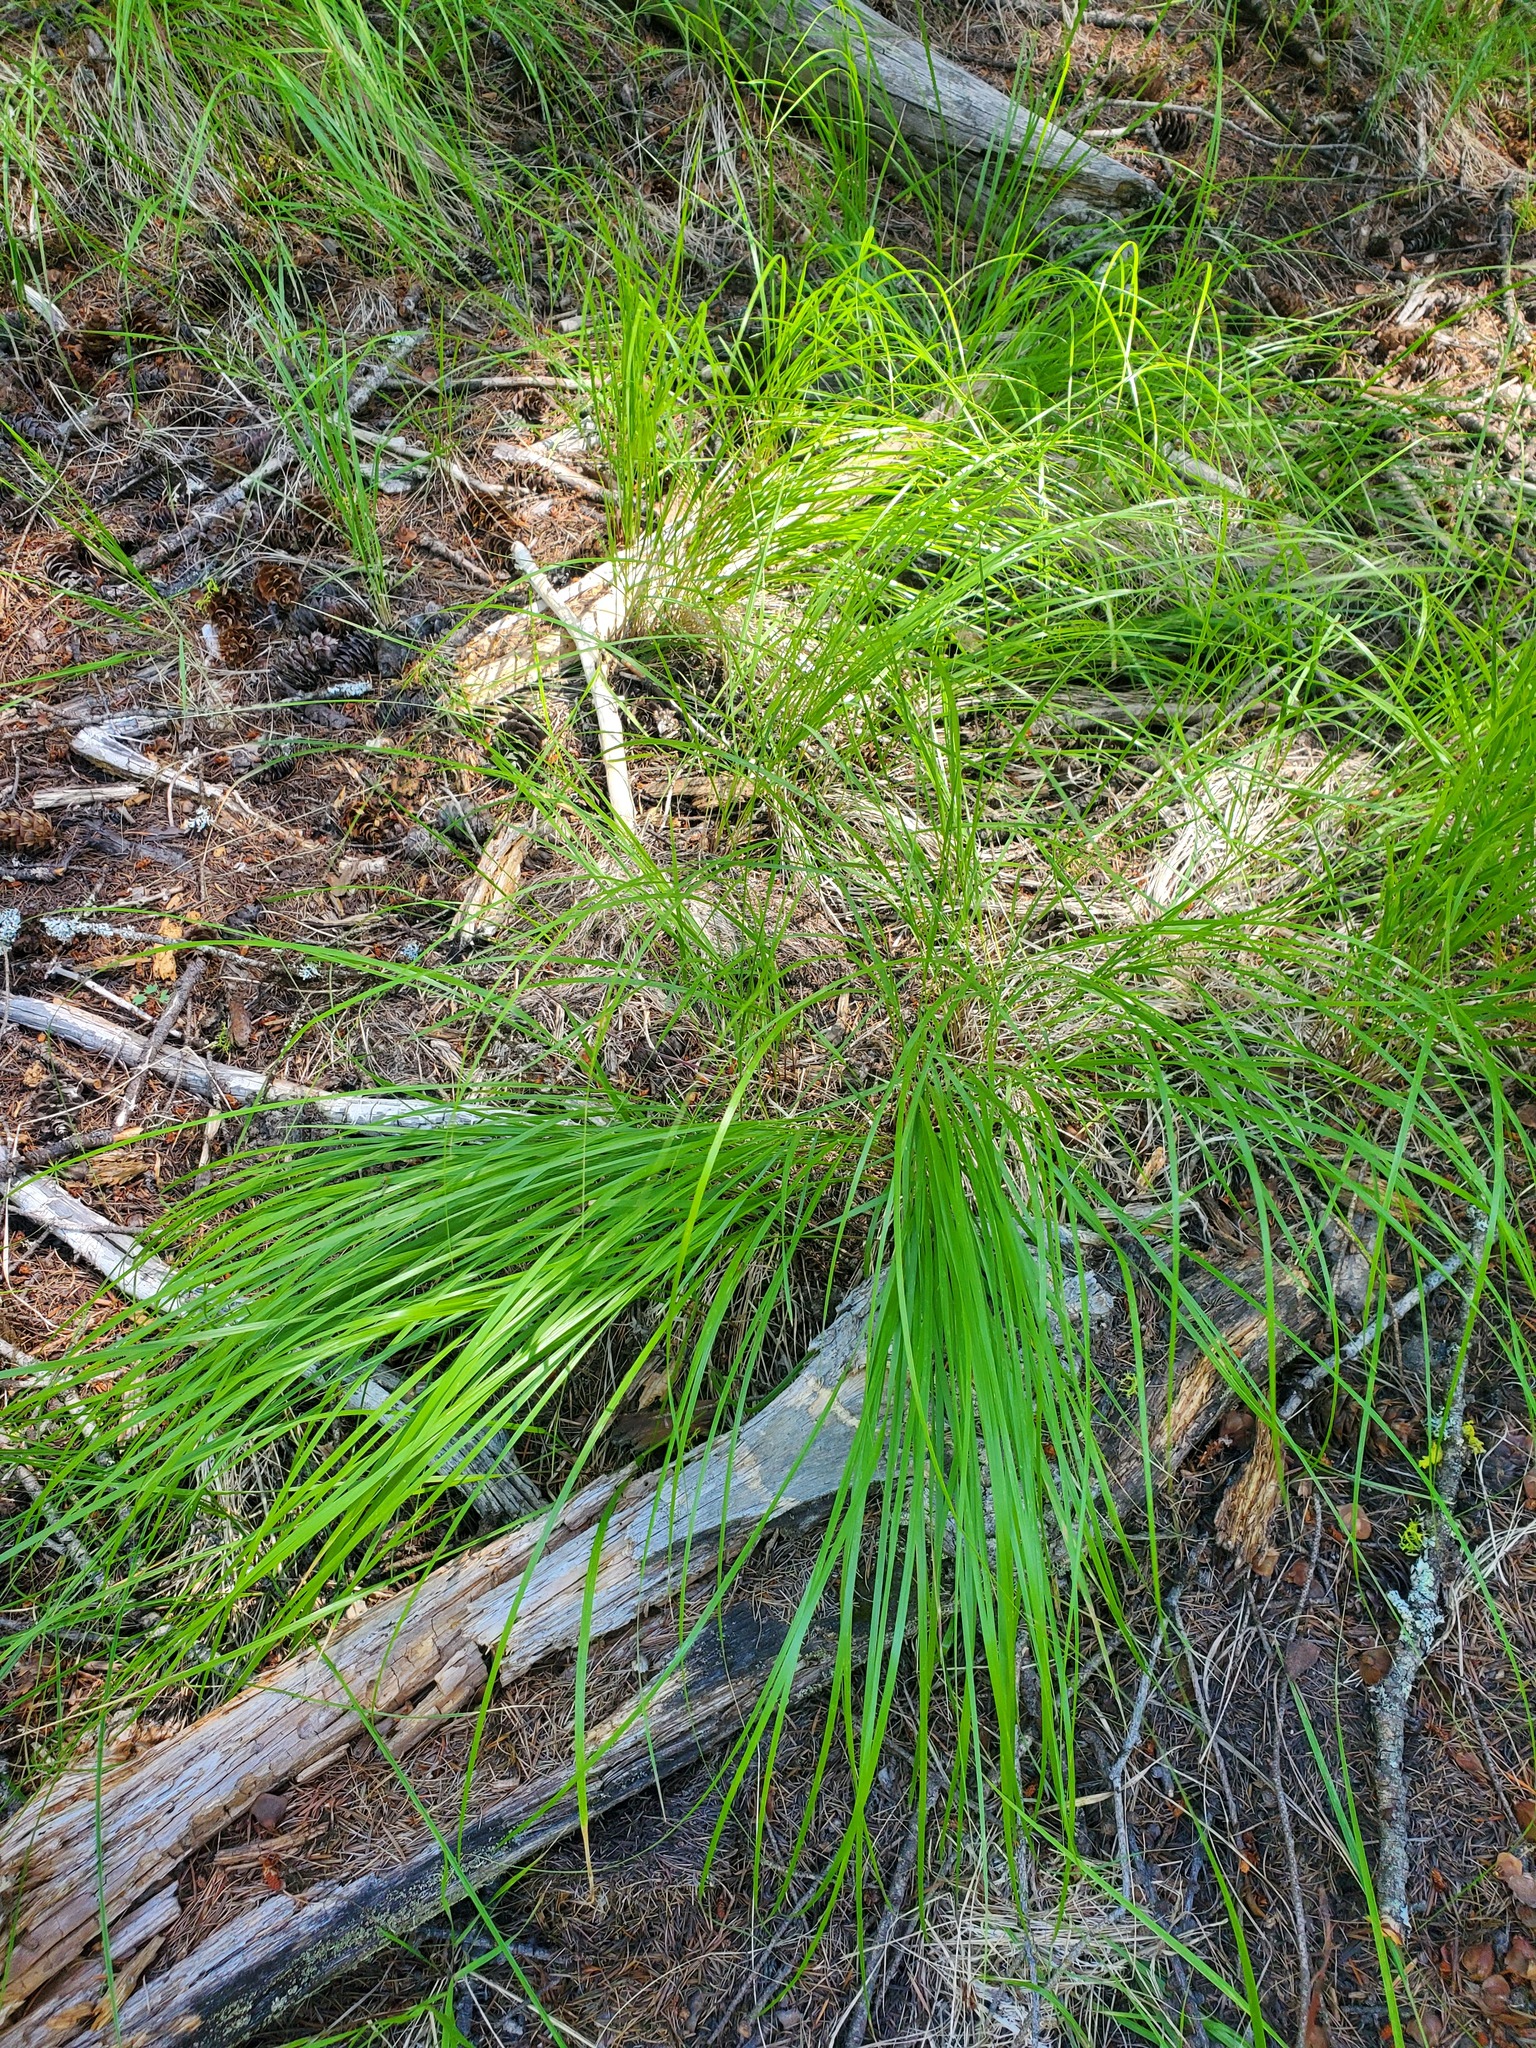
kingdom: Plantae
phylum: Tracheophyta
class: Liliopsida
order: Poales
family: Poaceae
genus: Calamagrostis
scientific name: Calamagrostis rubescens
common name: Pine grass
